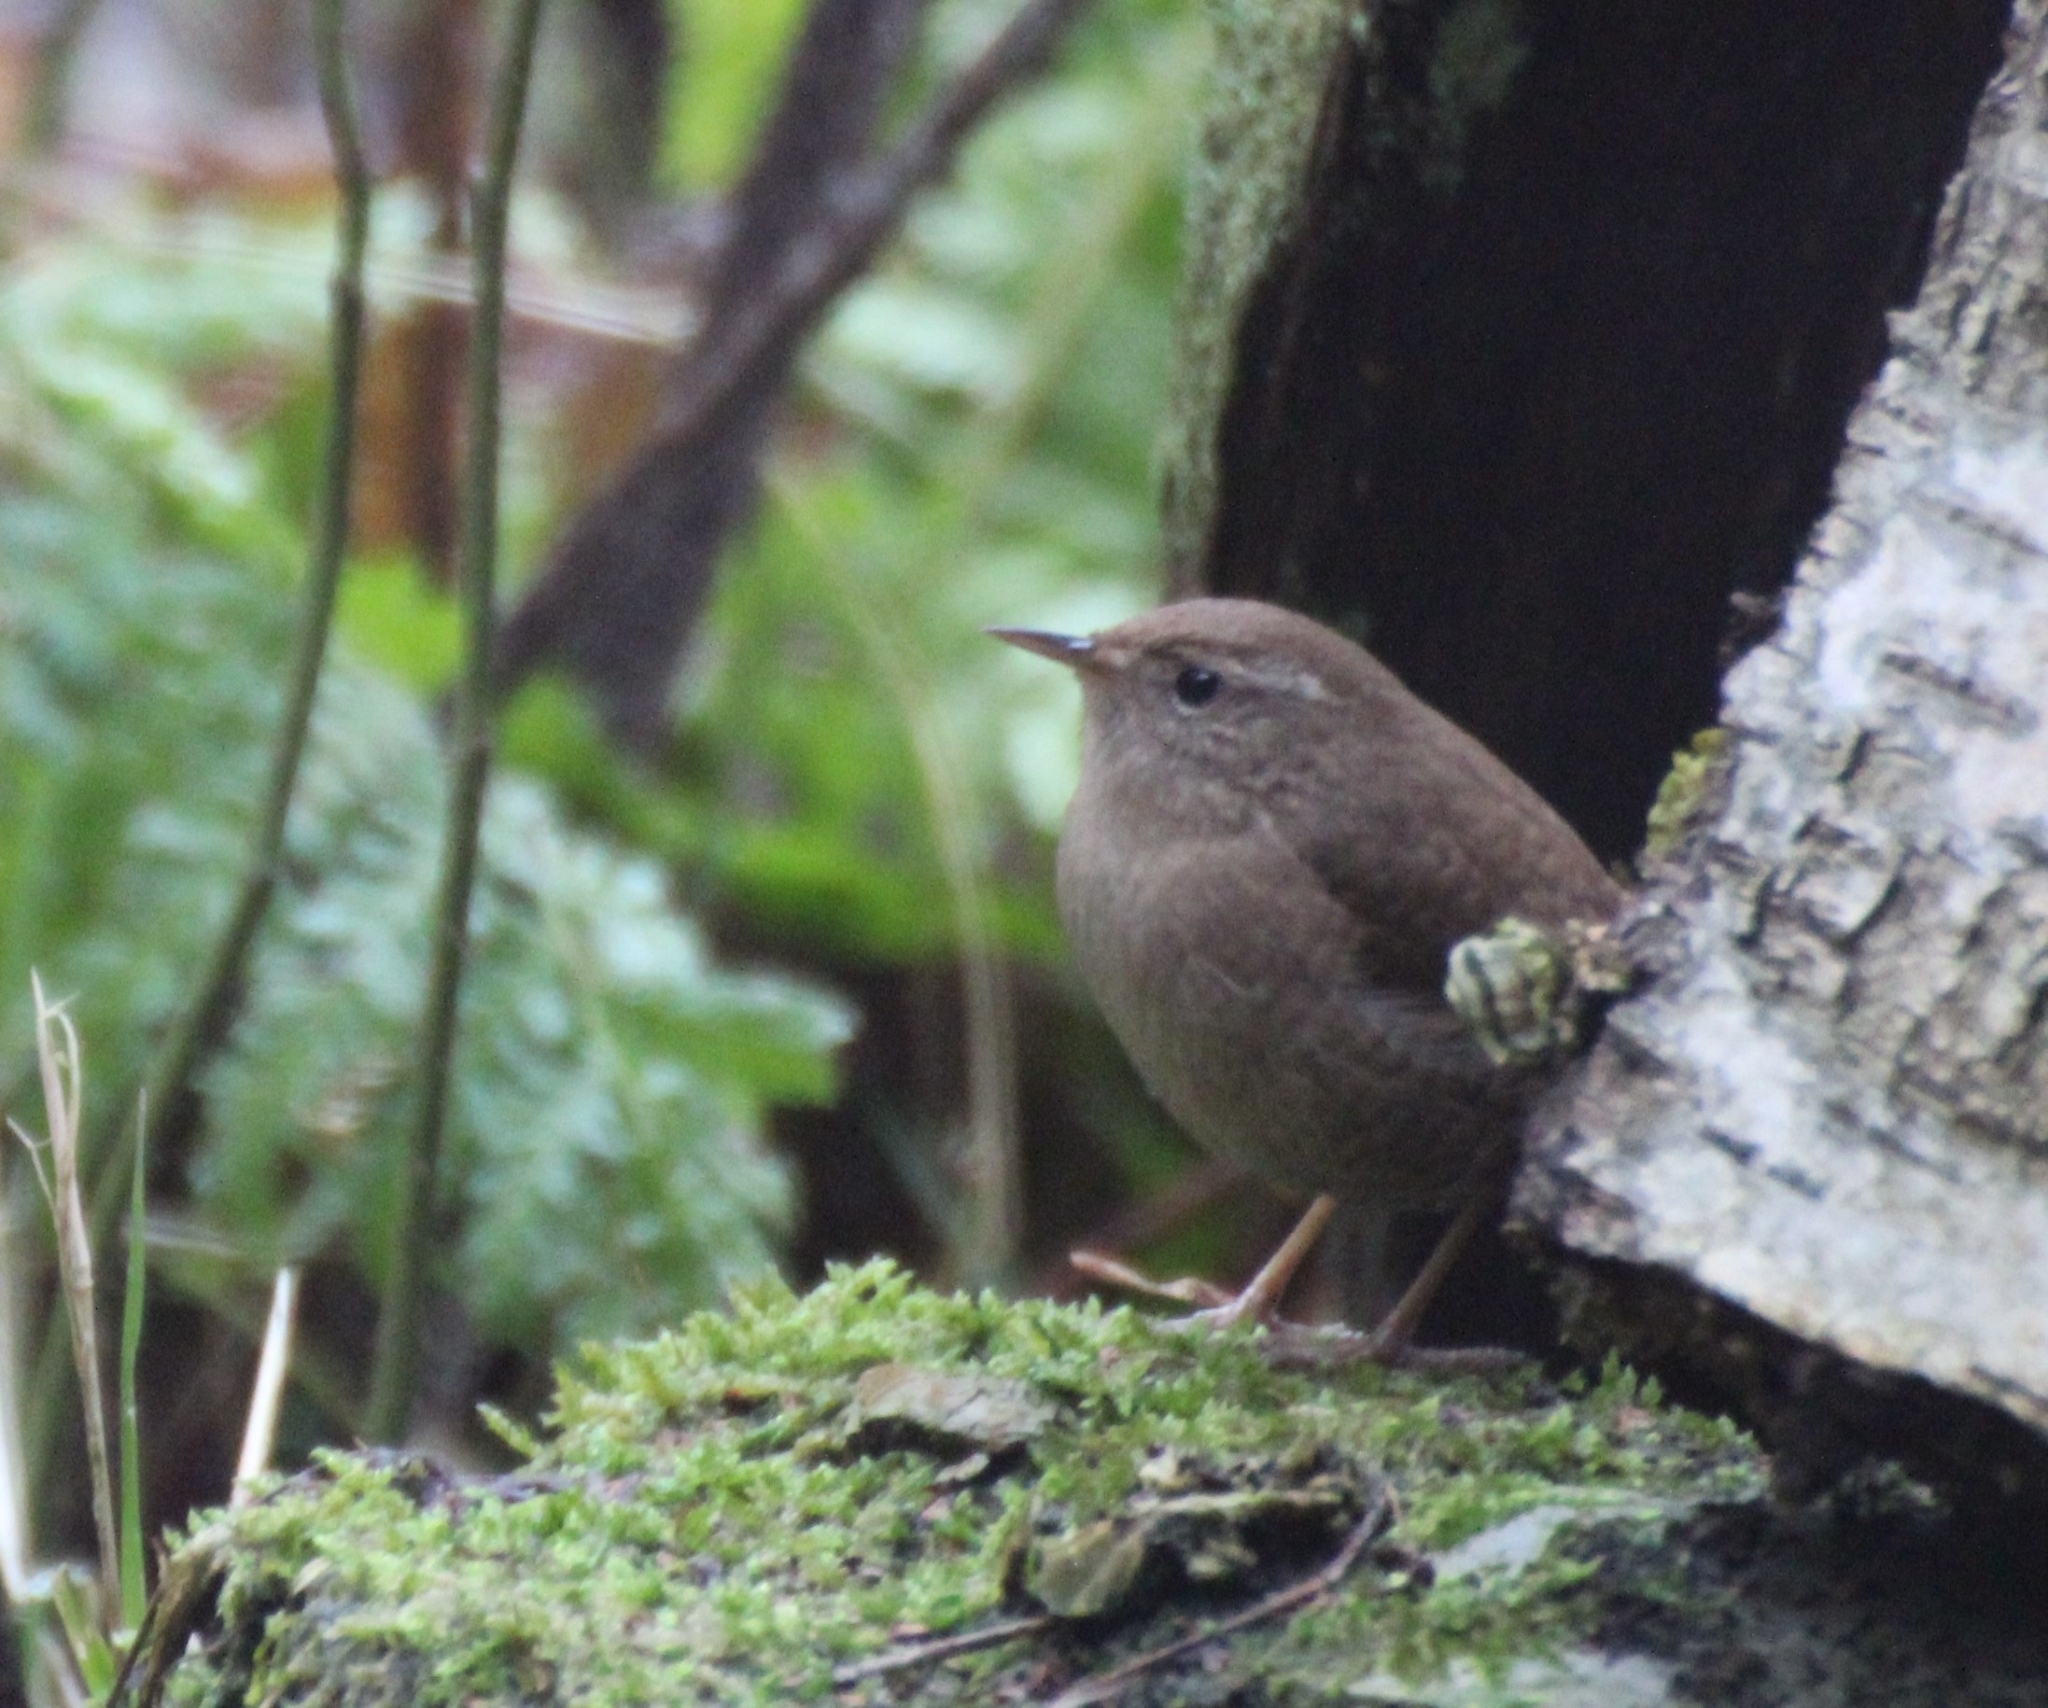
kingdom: Animalia
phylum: Chordata
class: Aves
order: Passeriformes
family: Troglodytidae
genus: Troglodytes
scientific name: Troglodytes troglodytes
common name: Eurasian wren
